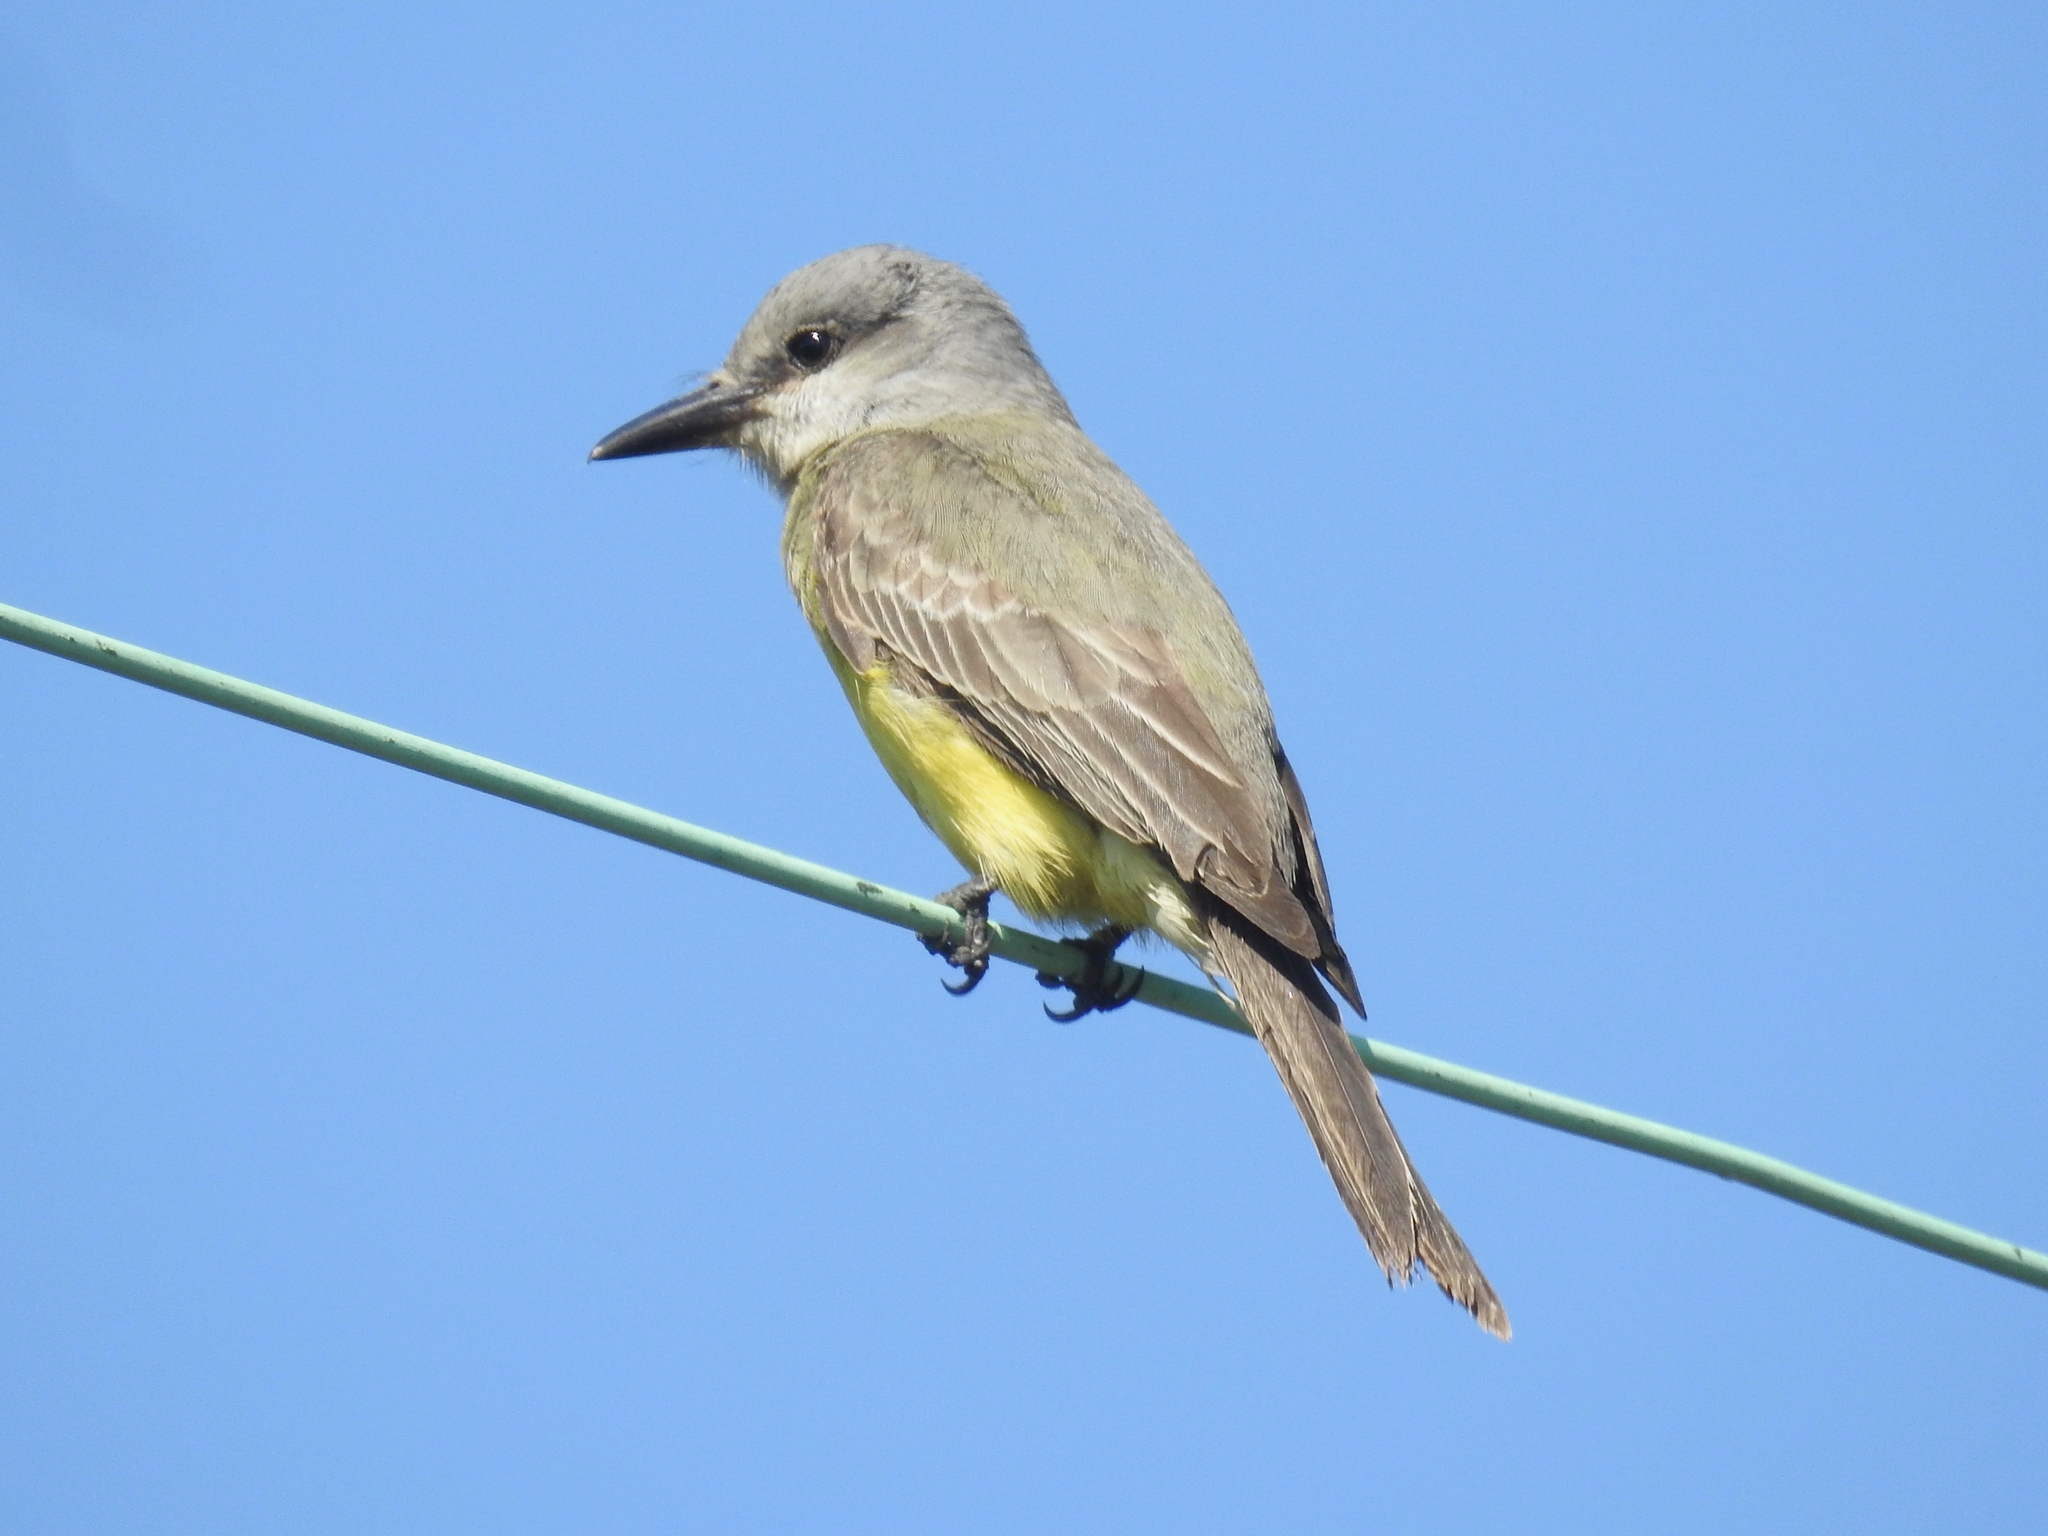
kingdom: Animalia
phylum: Chordata
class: Aves
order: Passeriformes
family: Tyrannidae
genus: Tyrannus
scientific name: Tyrannus melancholicus
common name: Tropical kingbird
